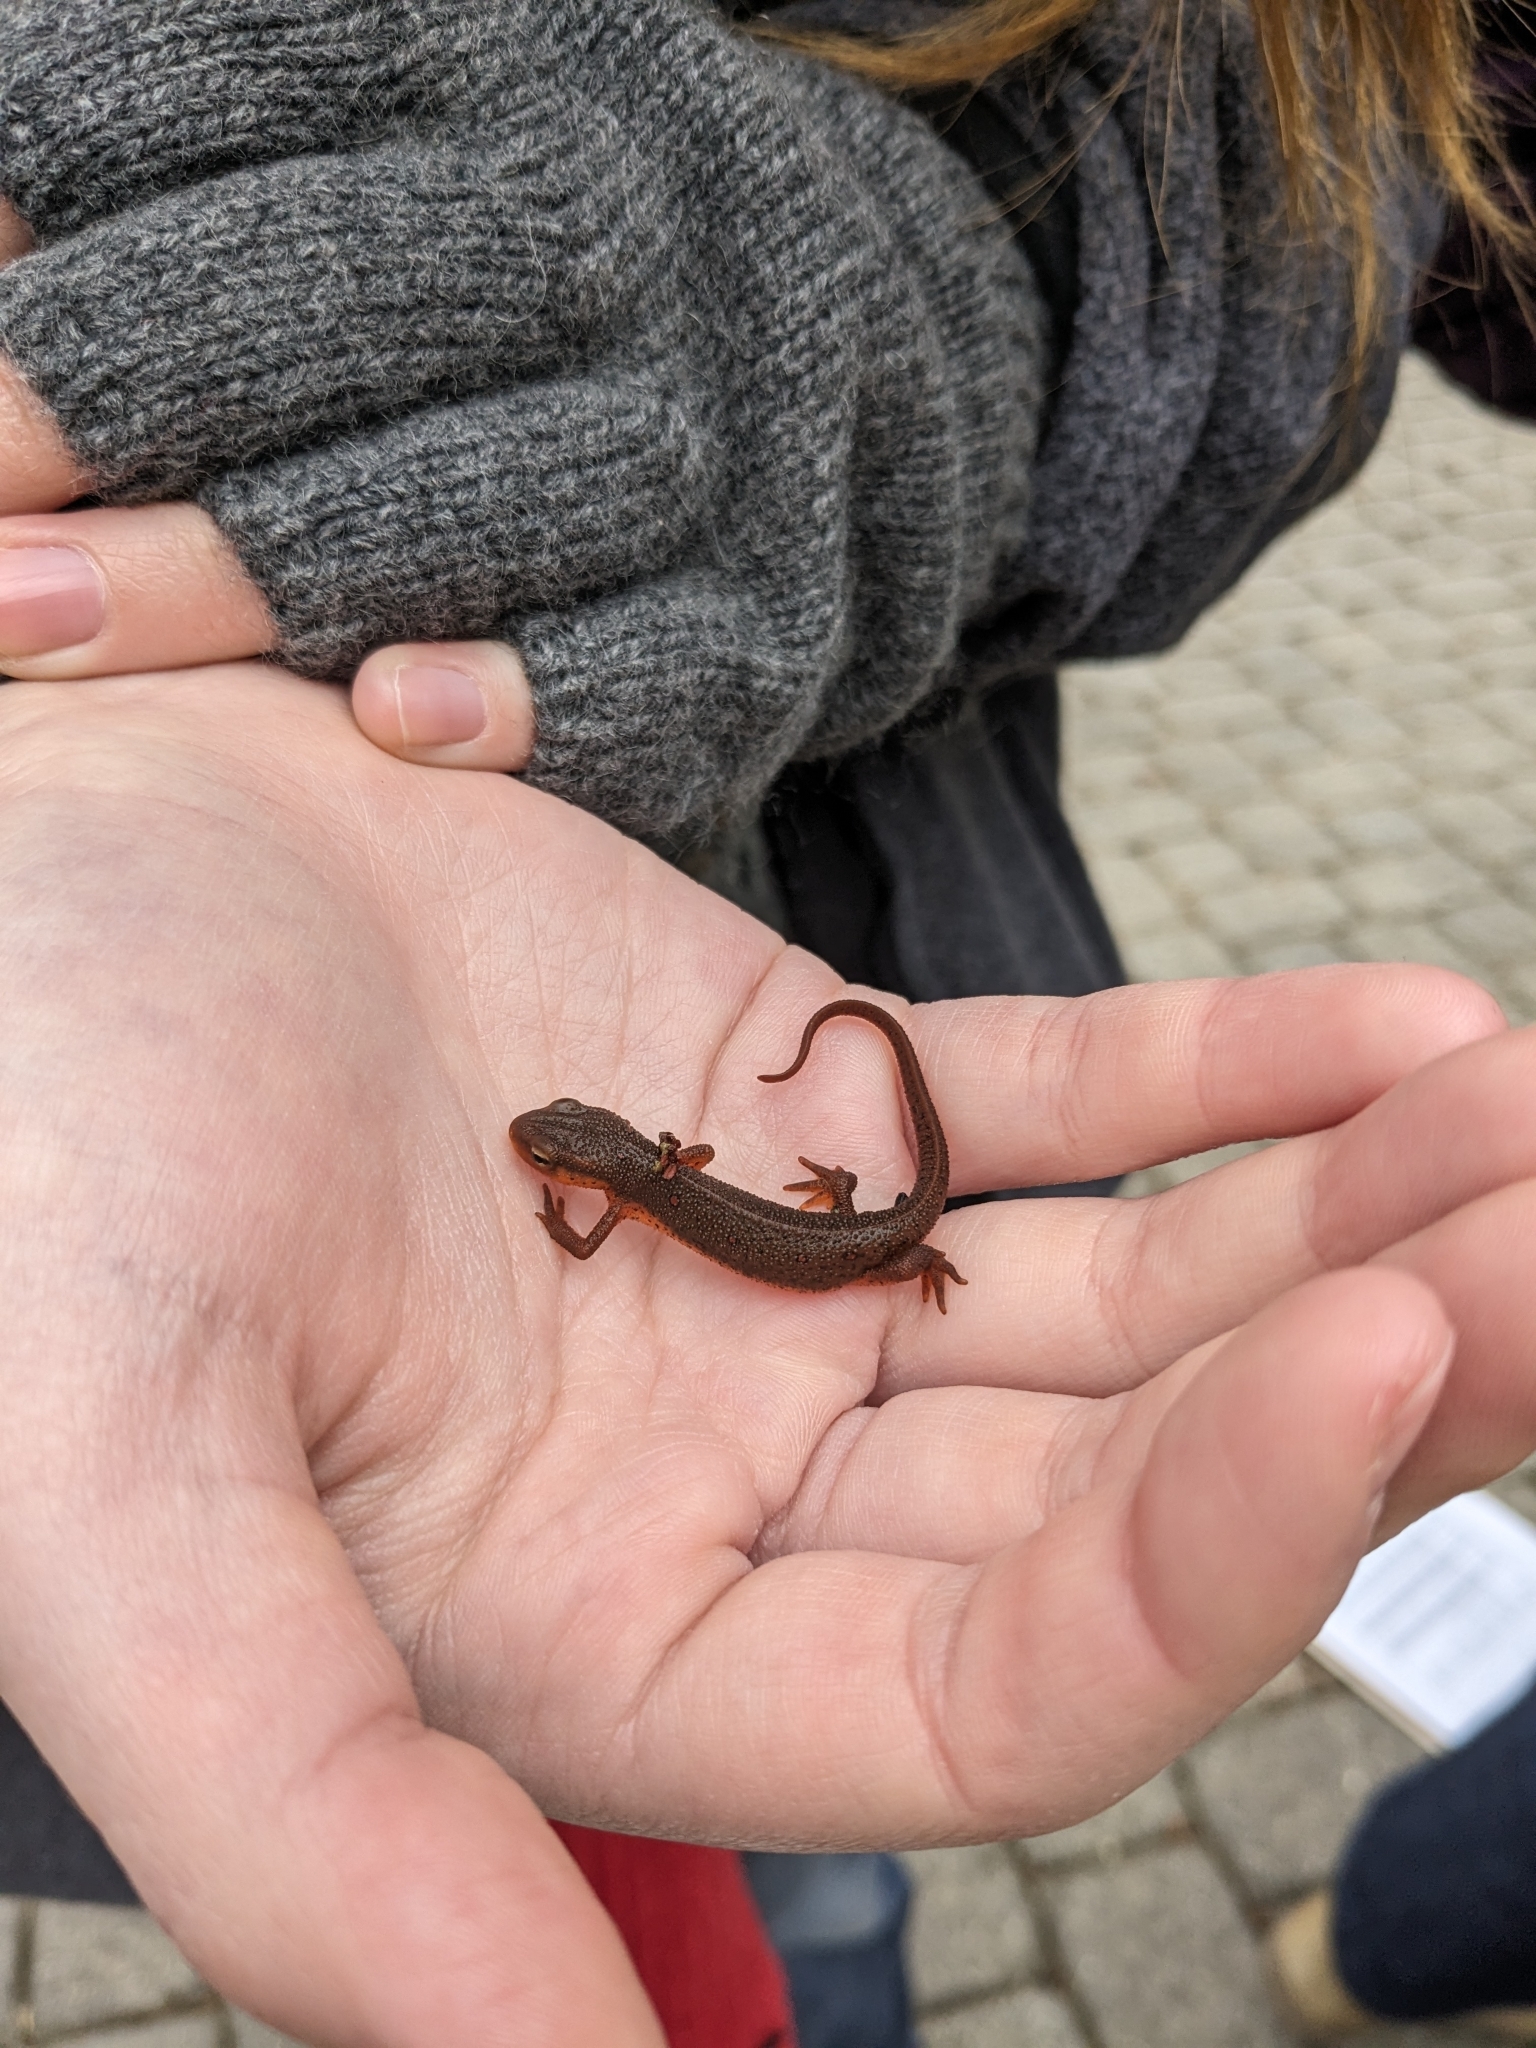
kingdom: Animalia
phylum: Chordata
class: Amphibia
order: Caudata
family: Salamandridae
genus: Notophthalmus
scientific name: Notophthalmus viridescens
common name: Eastern newt
